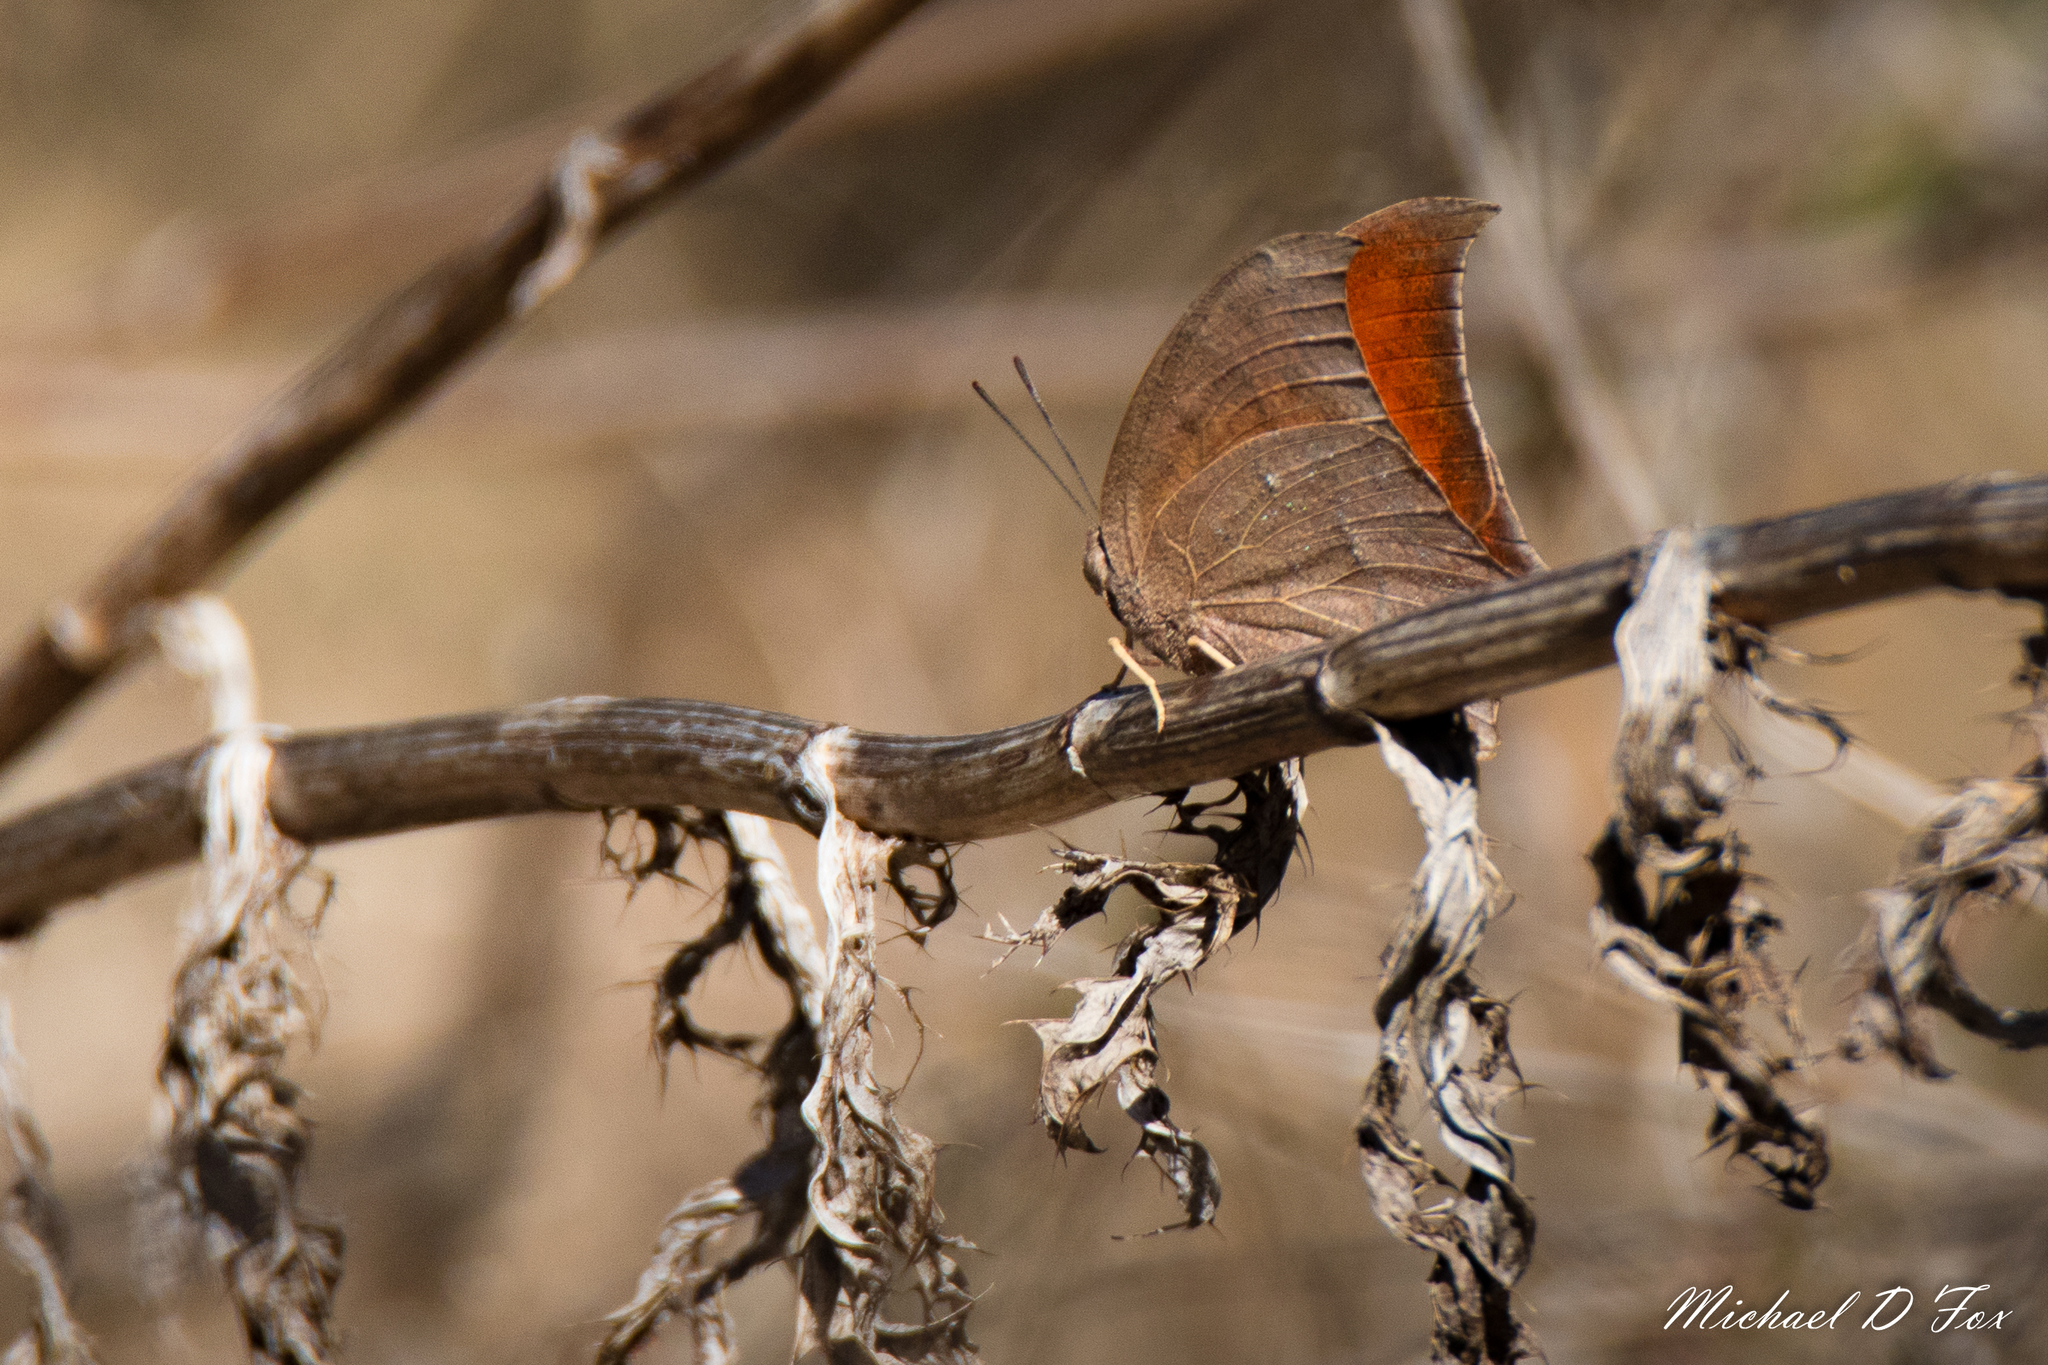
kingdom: Animalia
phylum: Arthropoda
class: Insecta
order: Lepidoptera
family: Nymphalidae
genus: Anaea
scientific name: Anaea andria
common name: Goatweed leafwing
